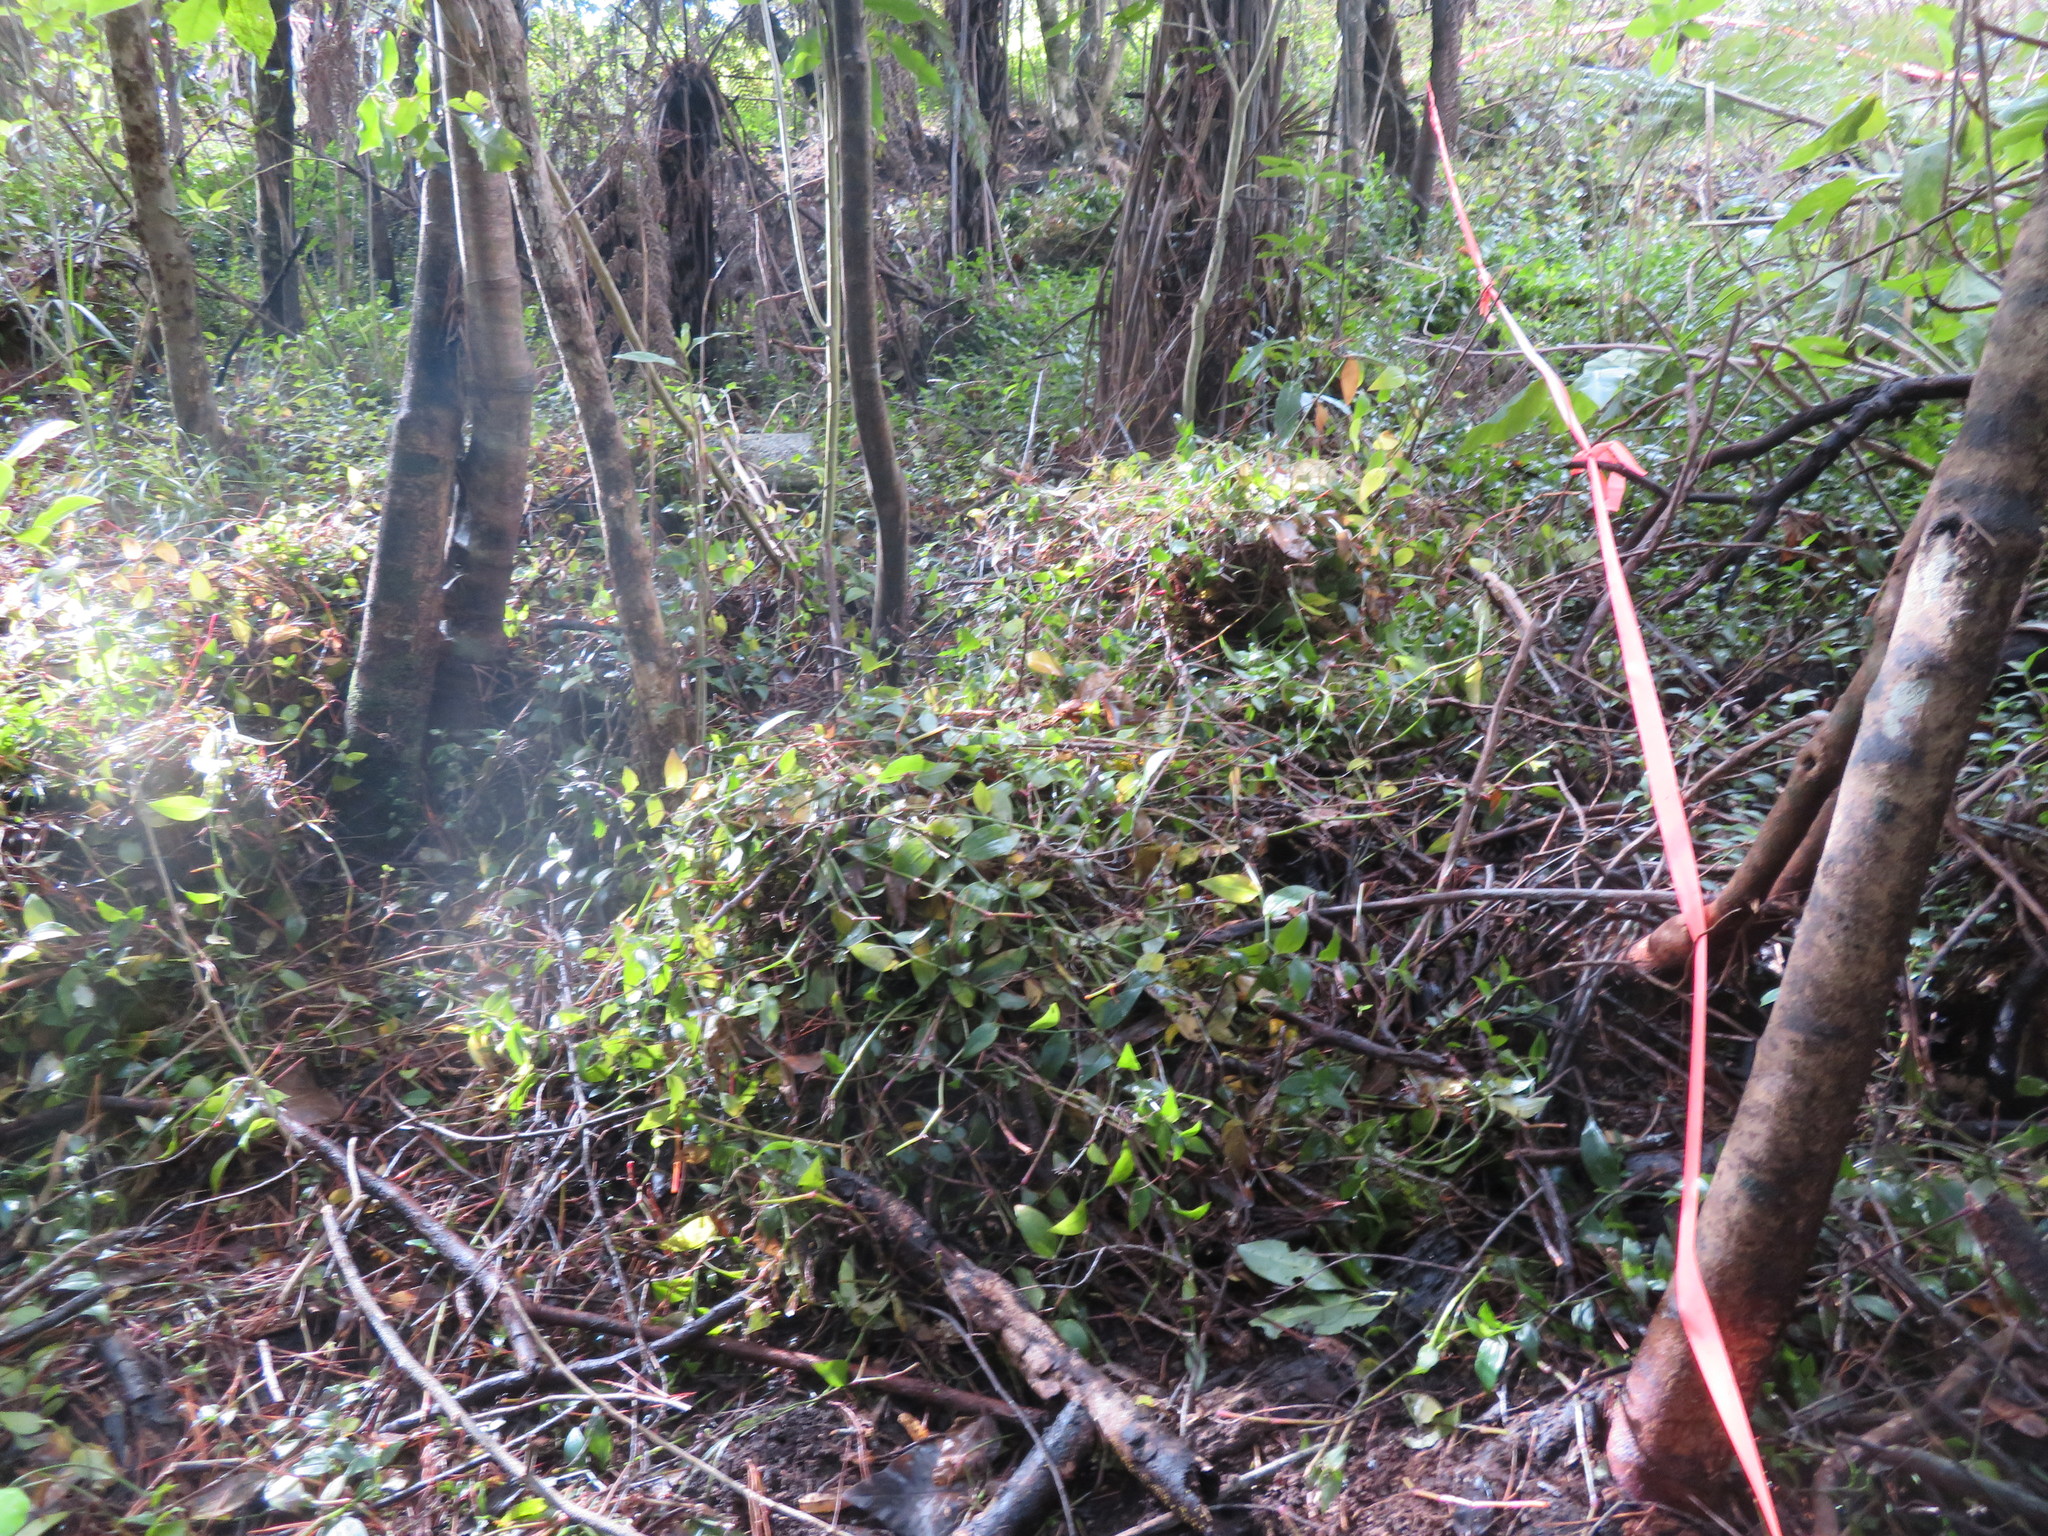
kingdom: Plantae
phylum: Tracheophyta
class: Liliopsida
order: Commelinales
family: Commelinaceae
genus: Tradescantia
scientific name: Tradescantia fluminensis
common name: Wandering-jew
